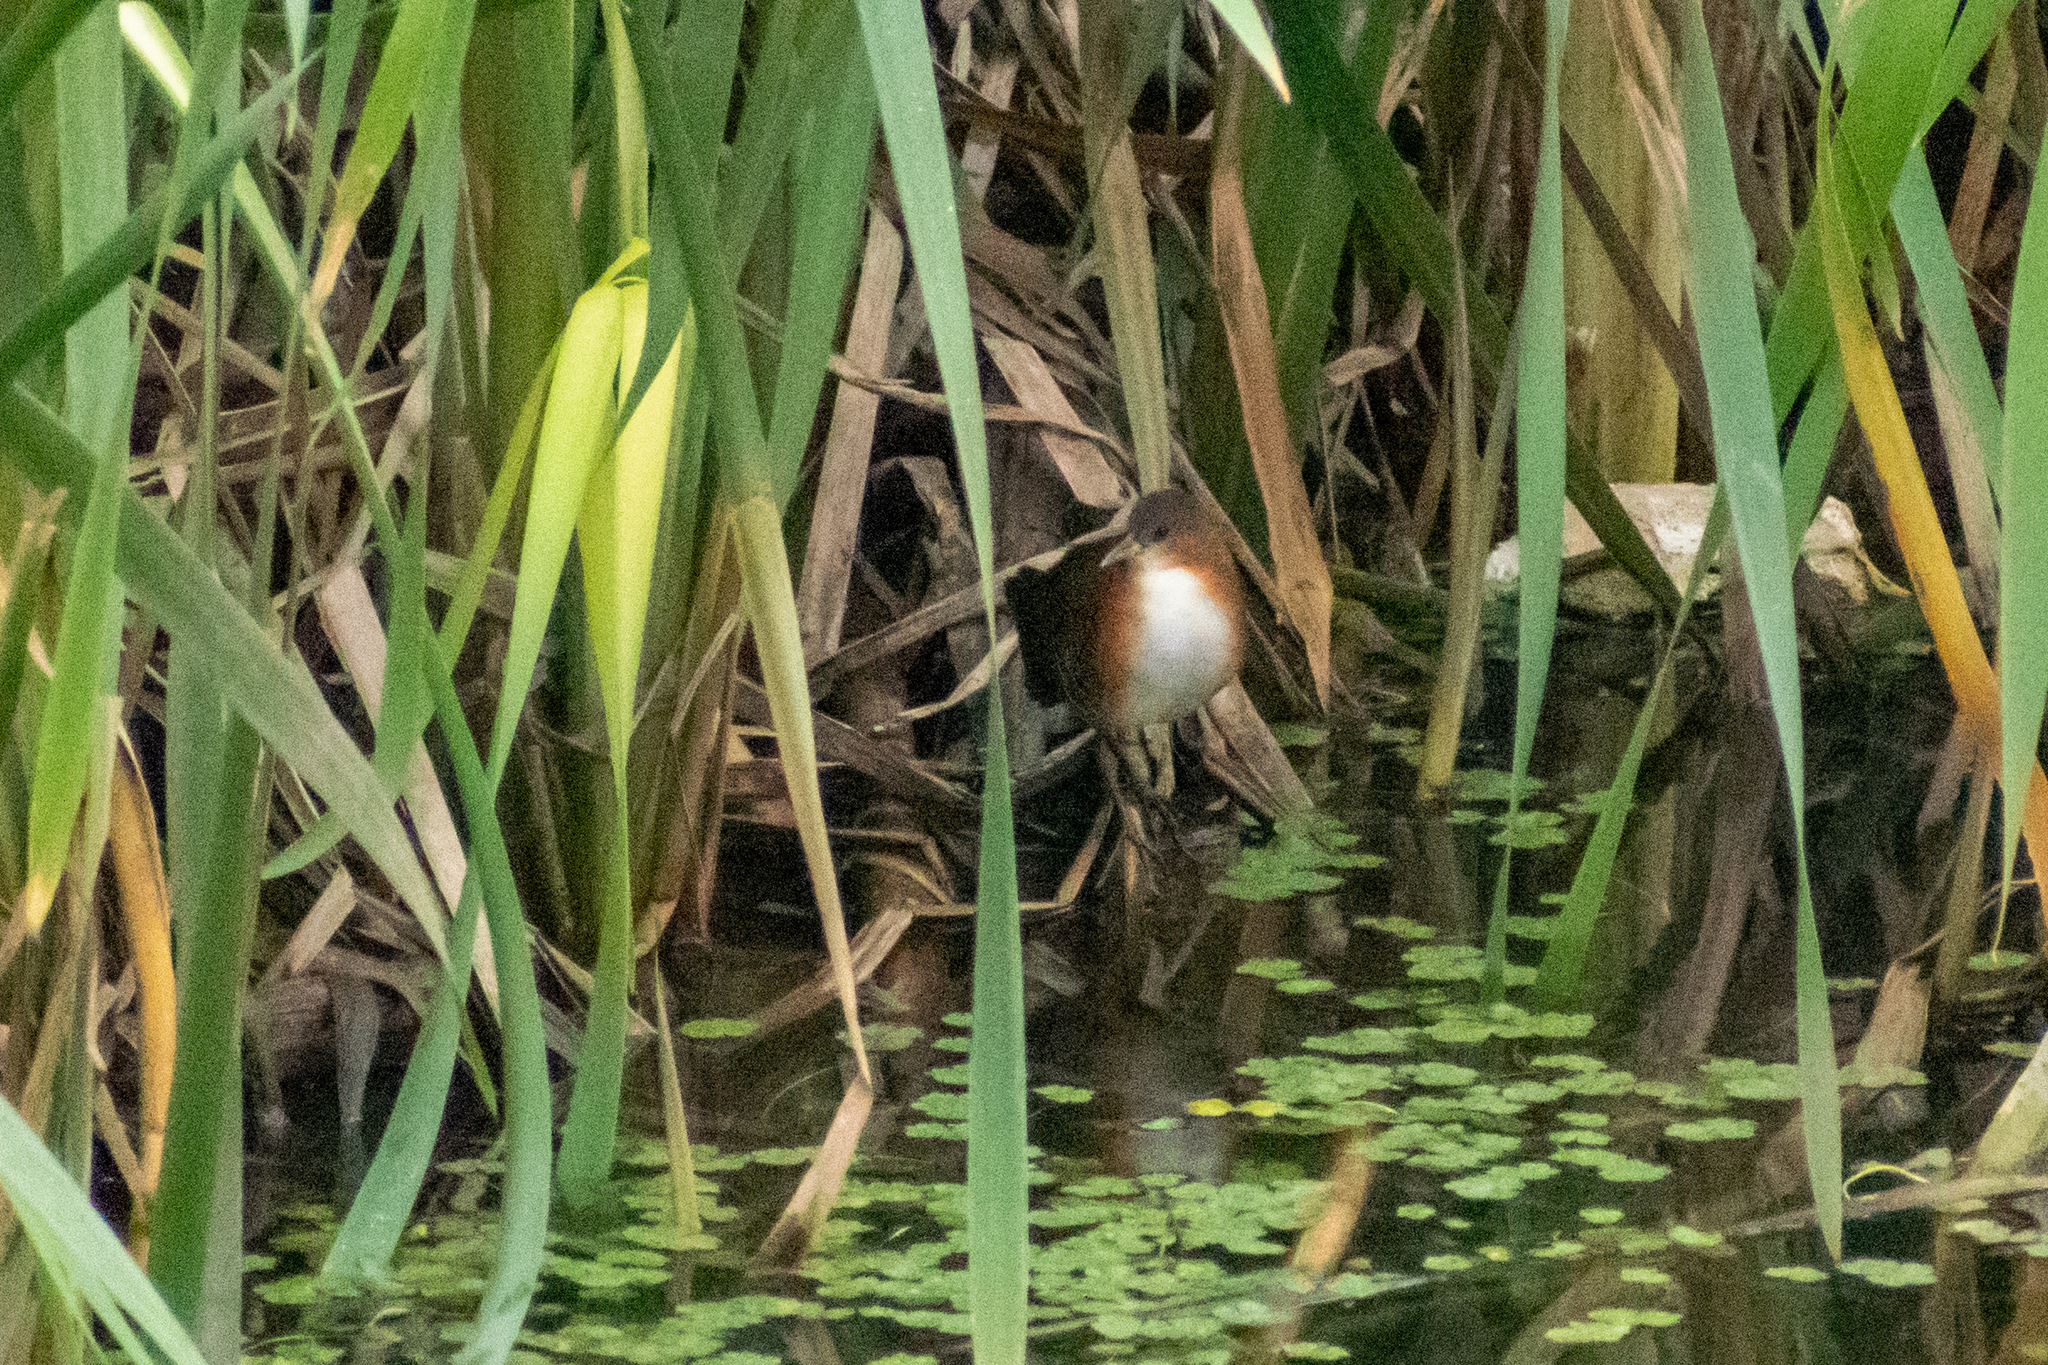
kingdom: Animalia
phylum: Chordata
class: Aves
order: Gruiformes
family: Rallidae
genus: Laterallus
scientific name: Laterallus melanophaius
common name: Rufous-sided crake
